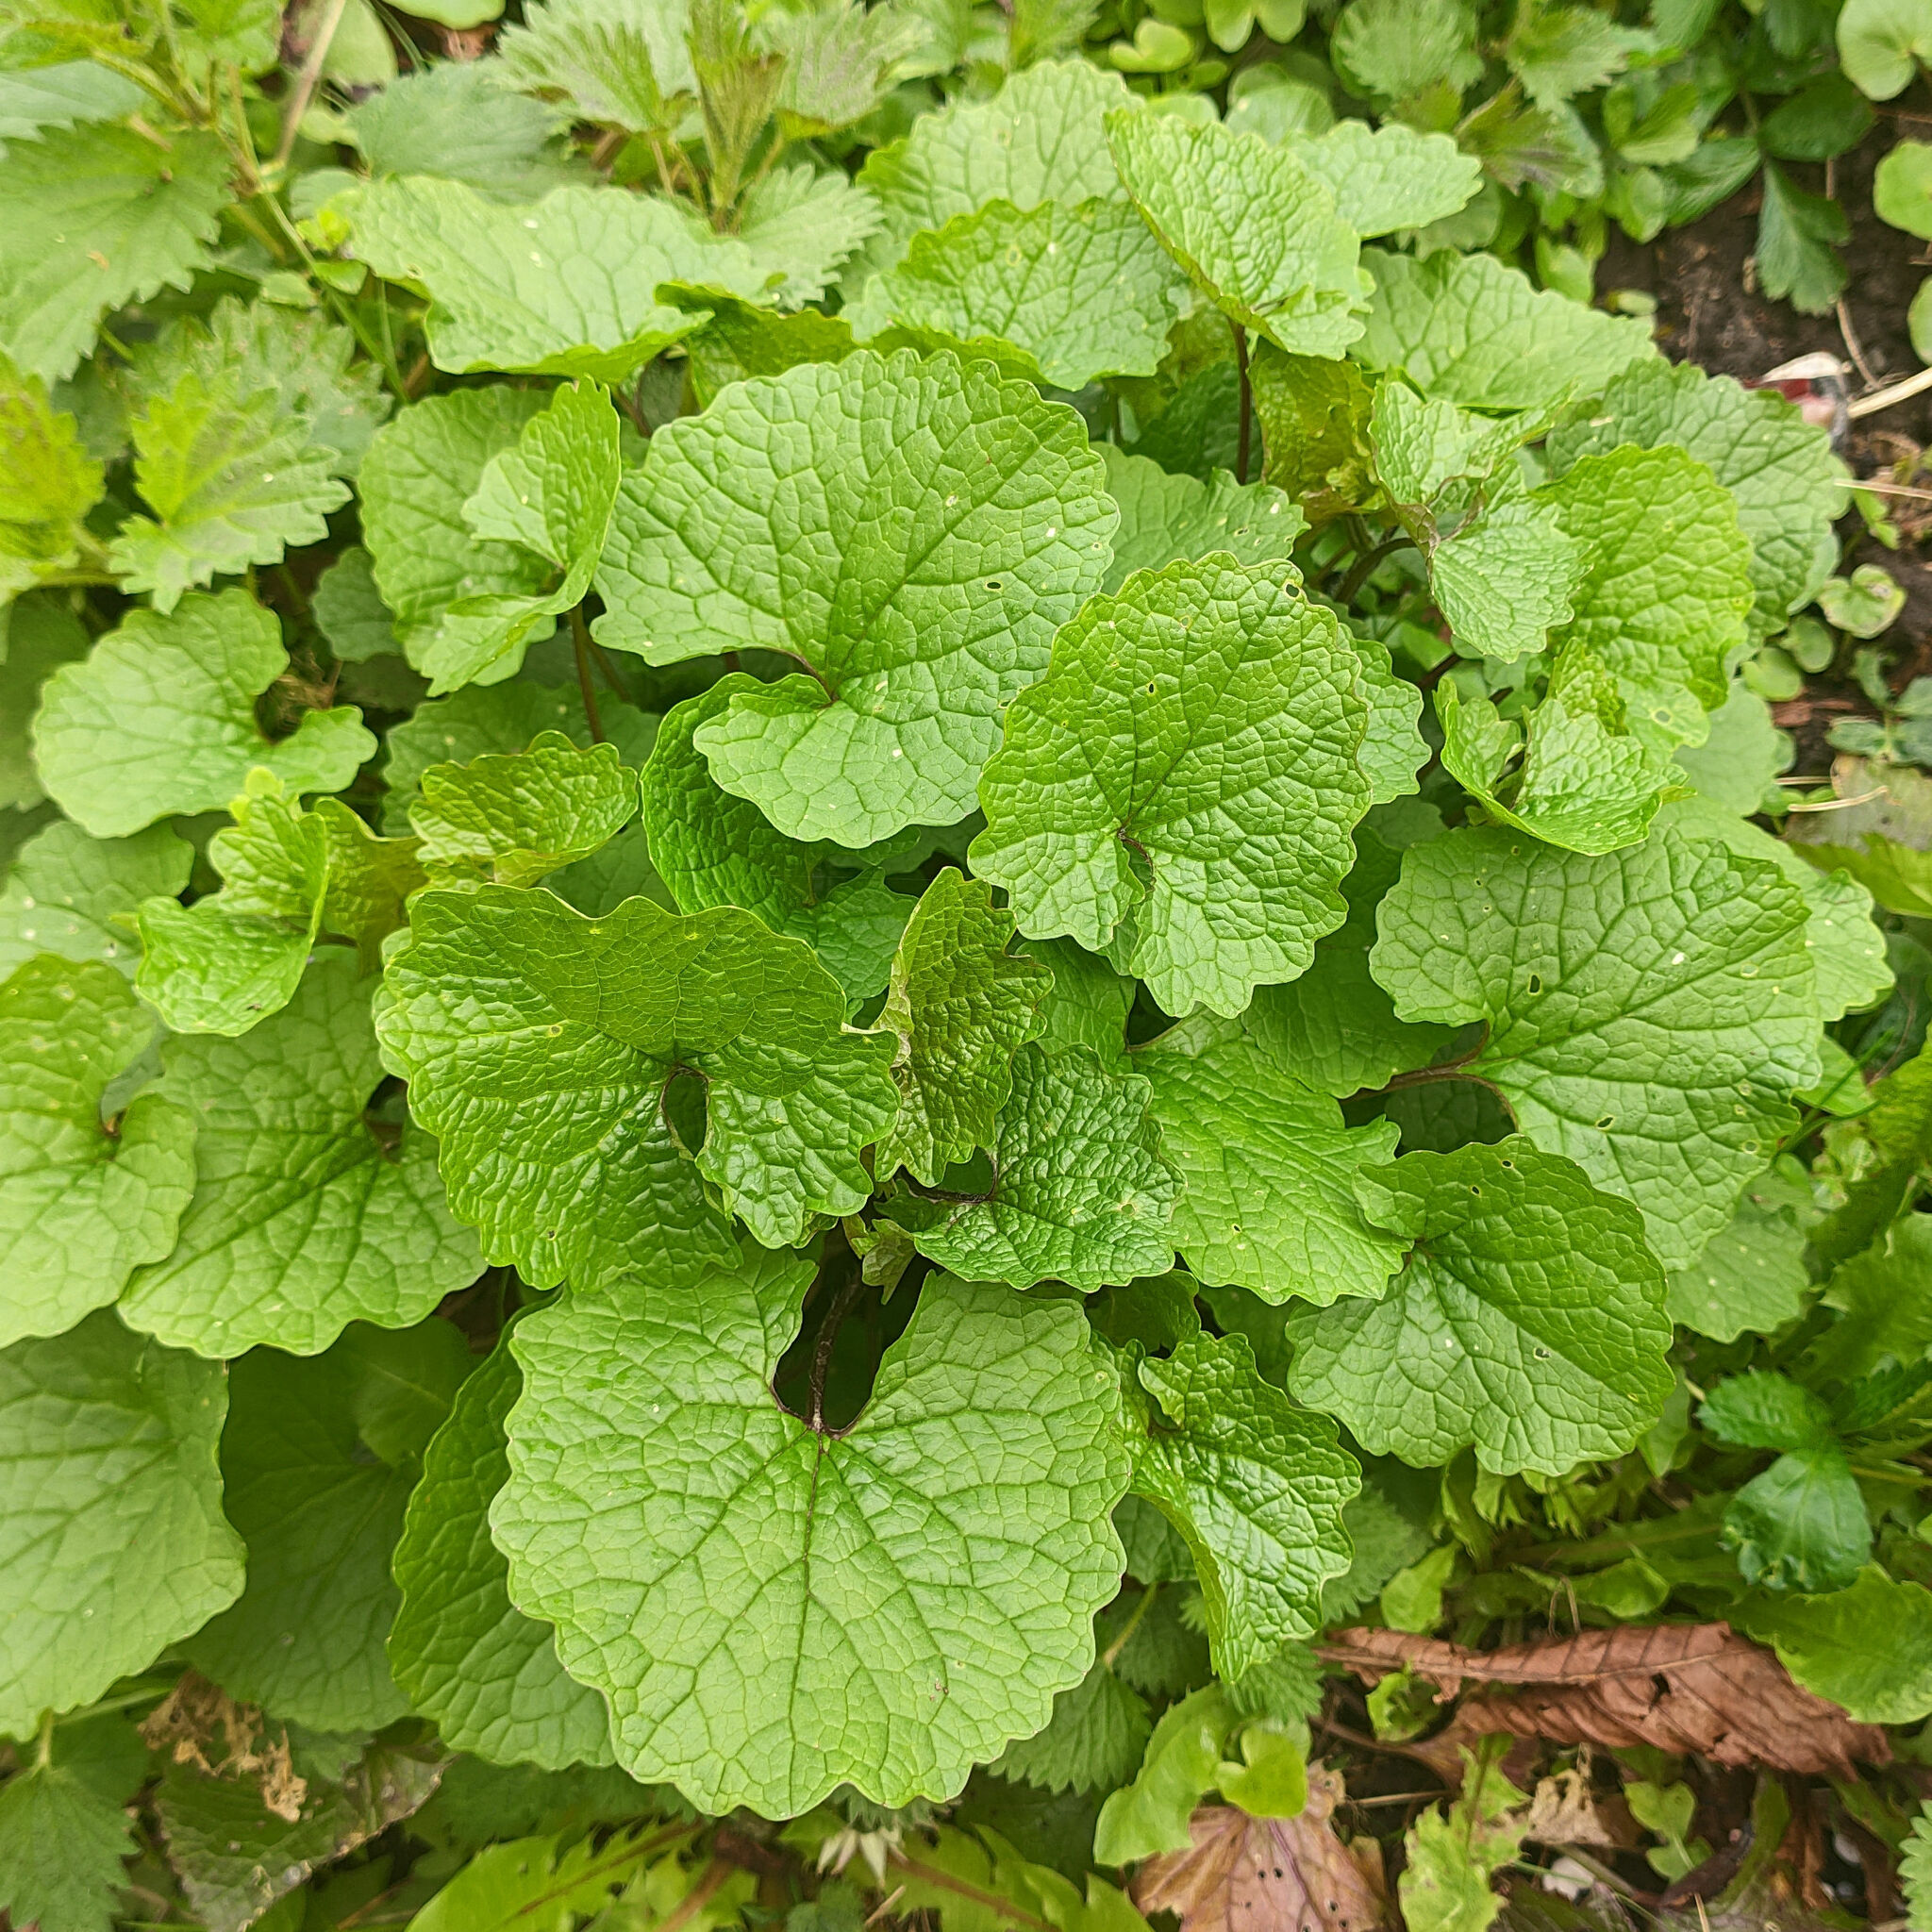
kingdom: Plantae
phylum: Tracheophyta
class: Magnoliopsida
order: Brassicales
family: Brassicaceae
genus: Alliaria
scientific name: Alliaria petiolata
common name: Garlic mustard
